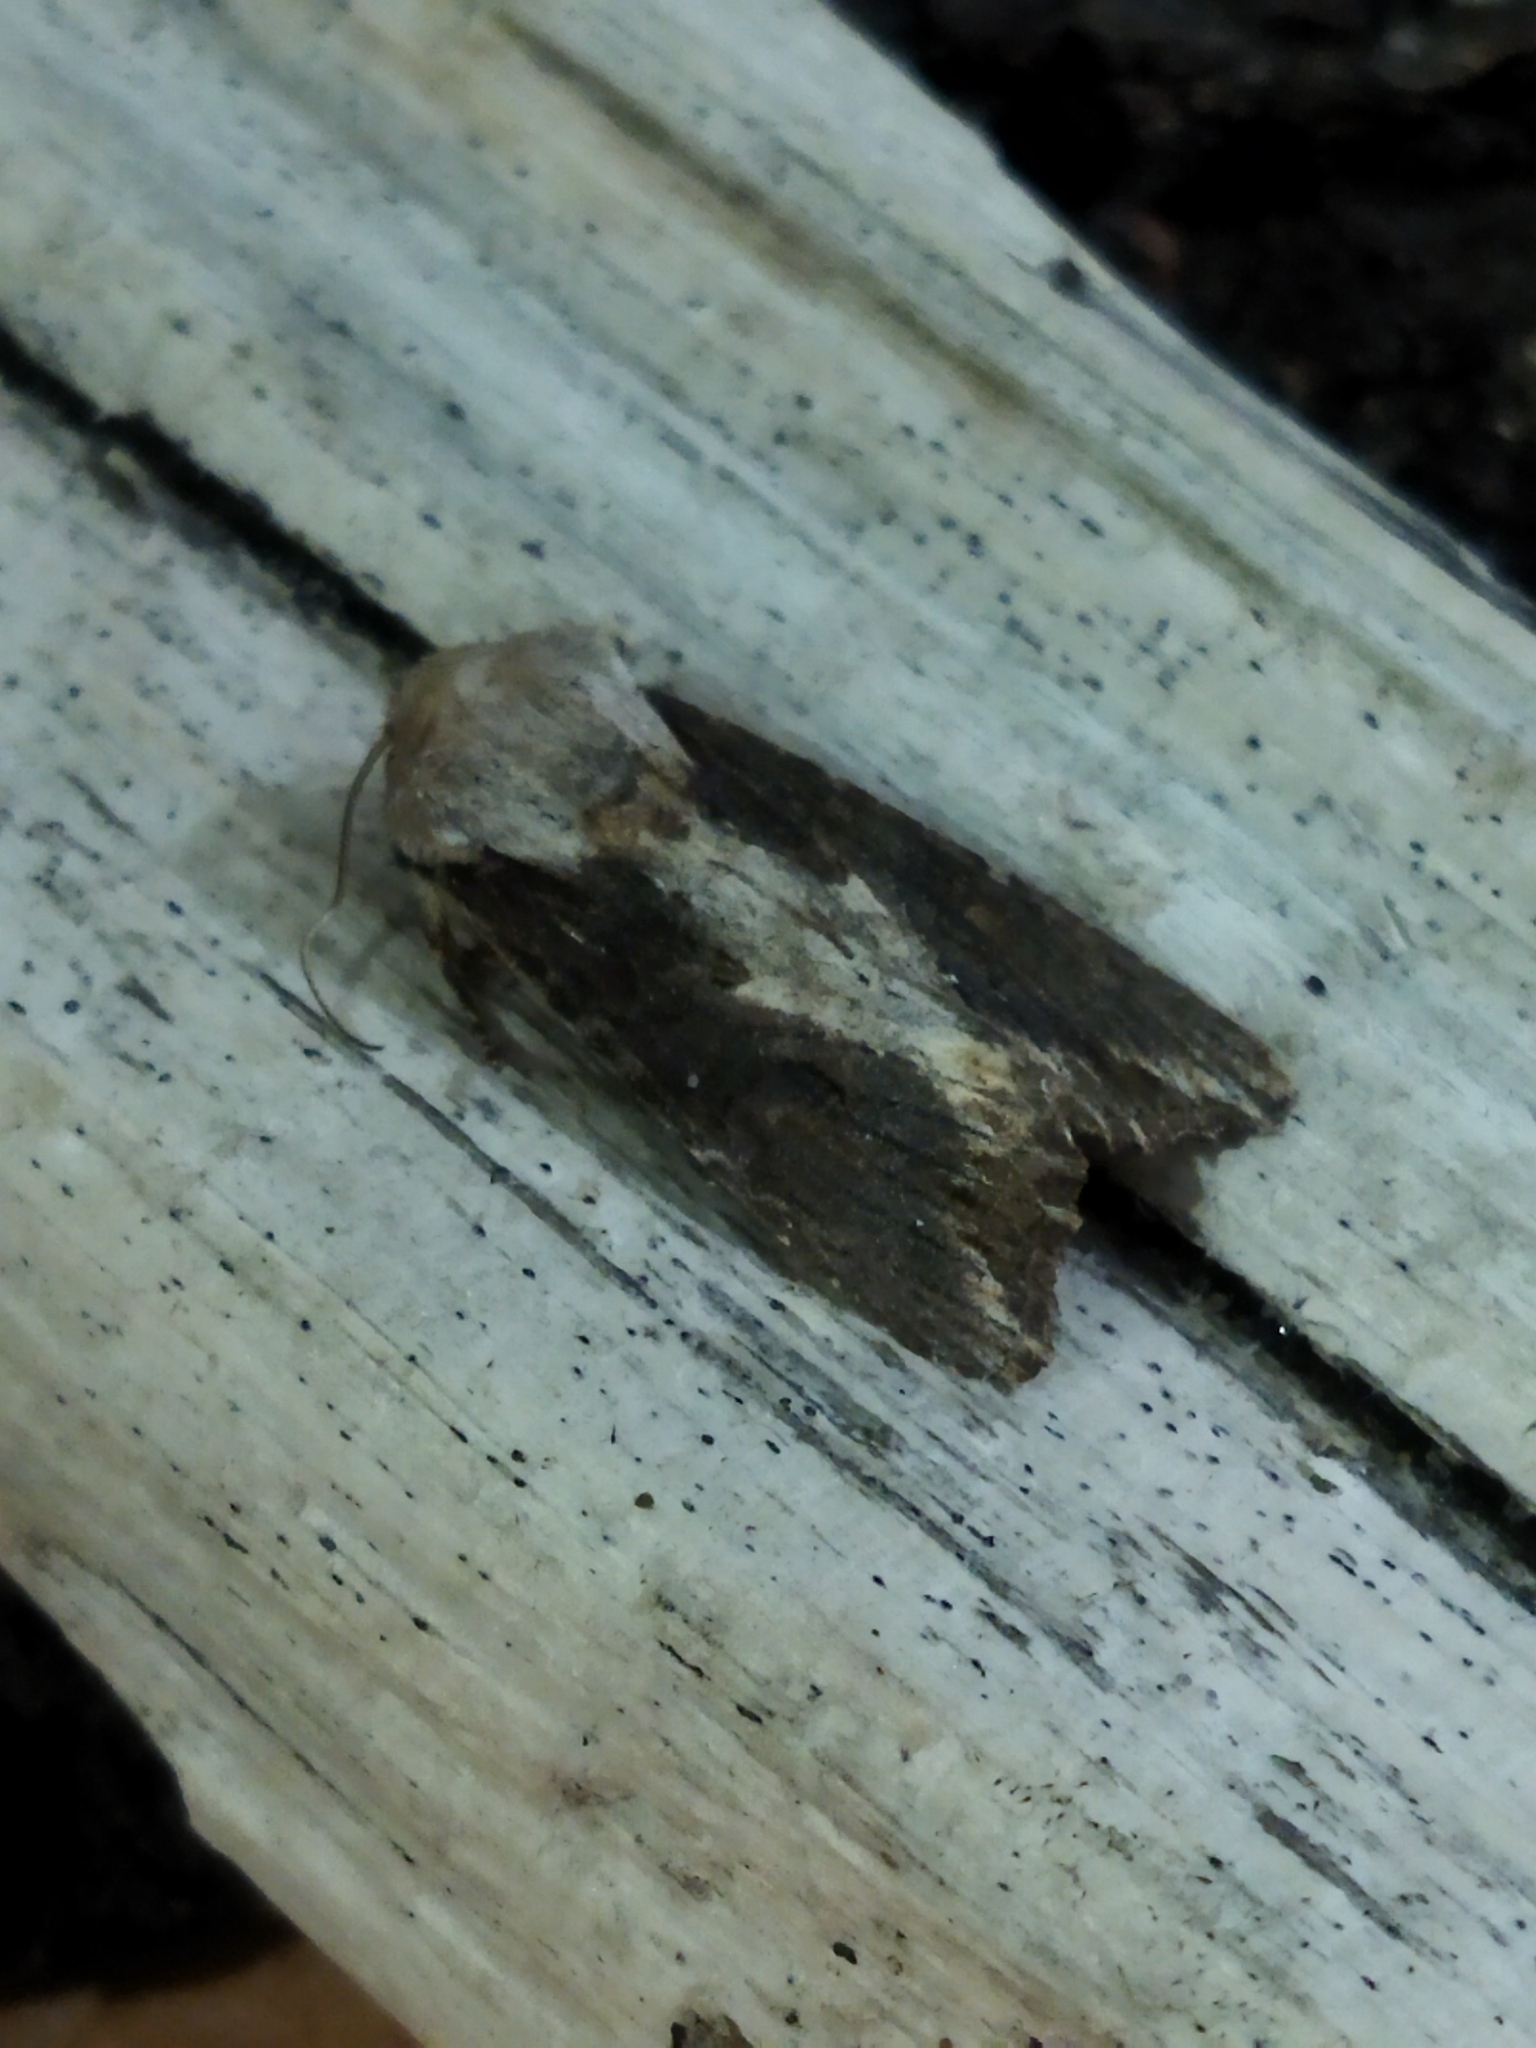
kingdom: Animalia
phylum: Arthropoda
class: Insecta
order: Lepidoptera
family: Noctuidae
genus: Egira
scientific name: Egira
